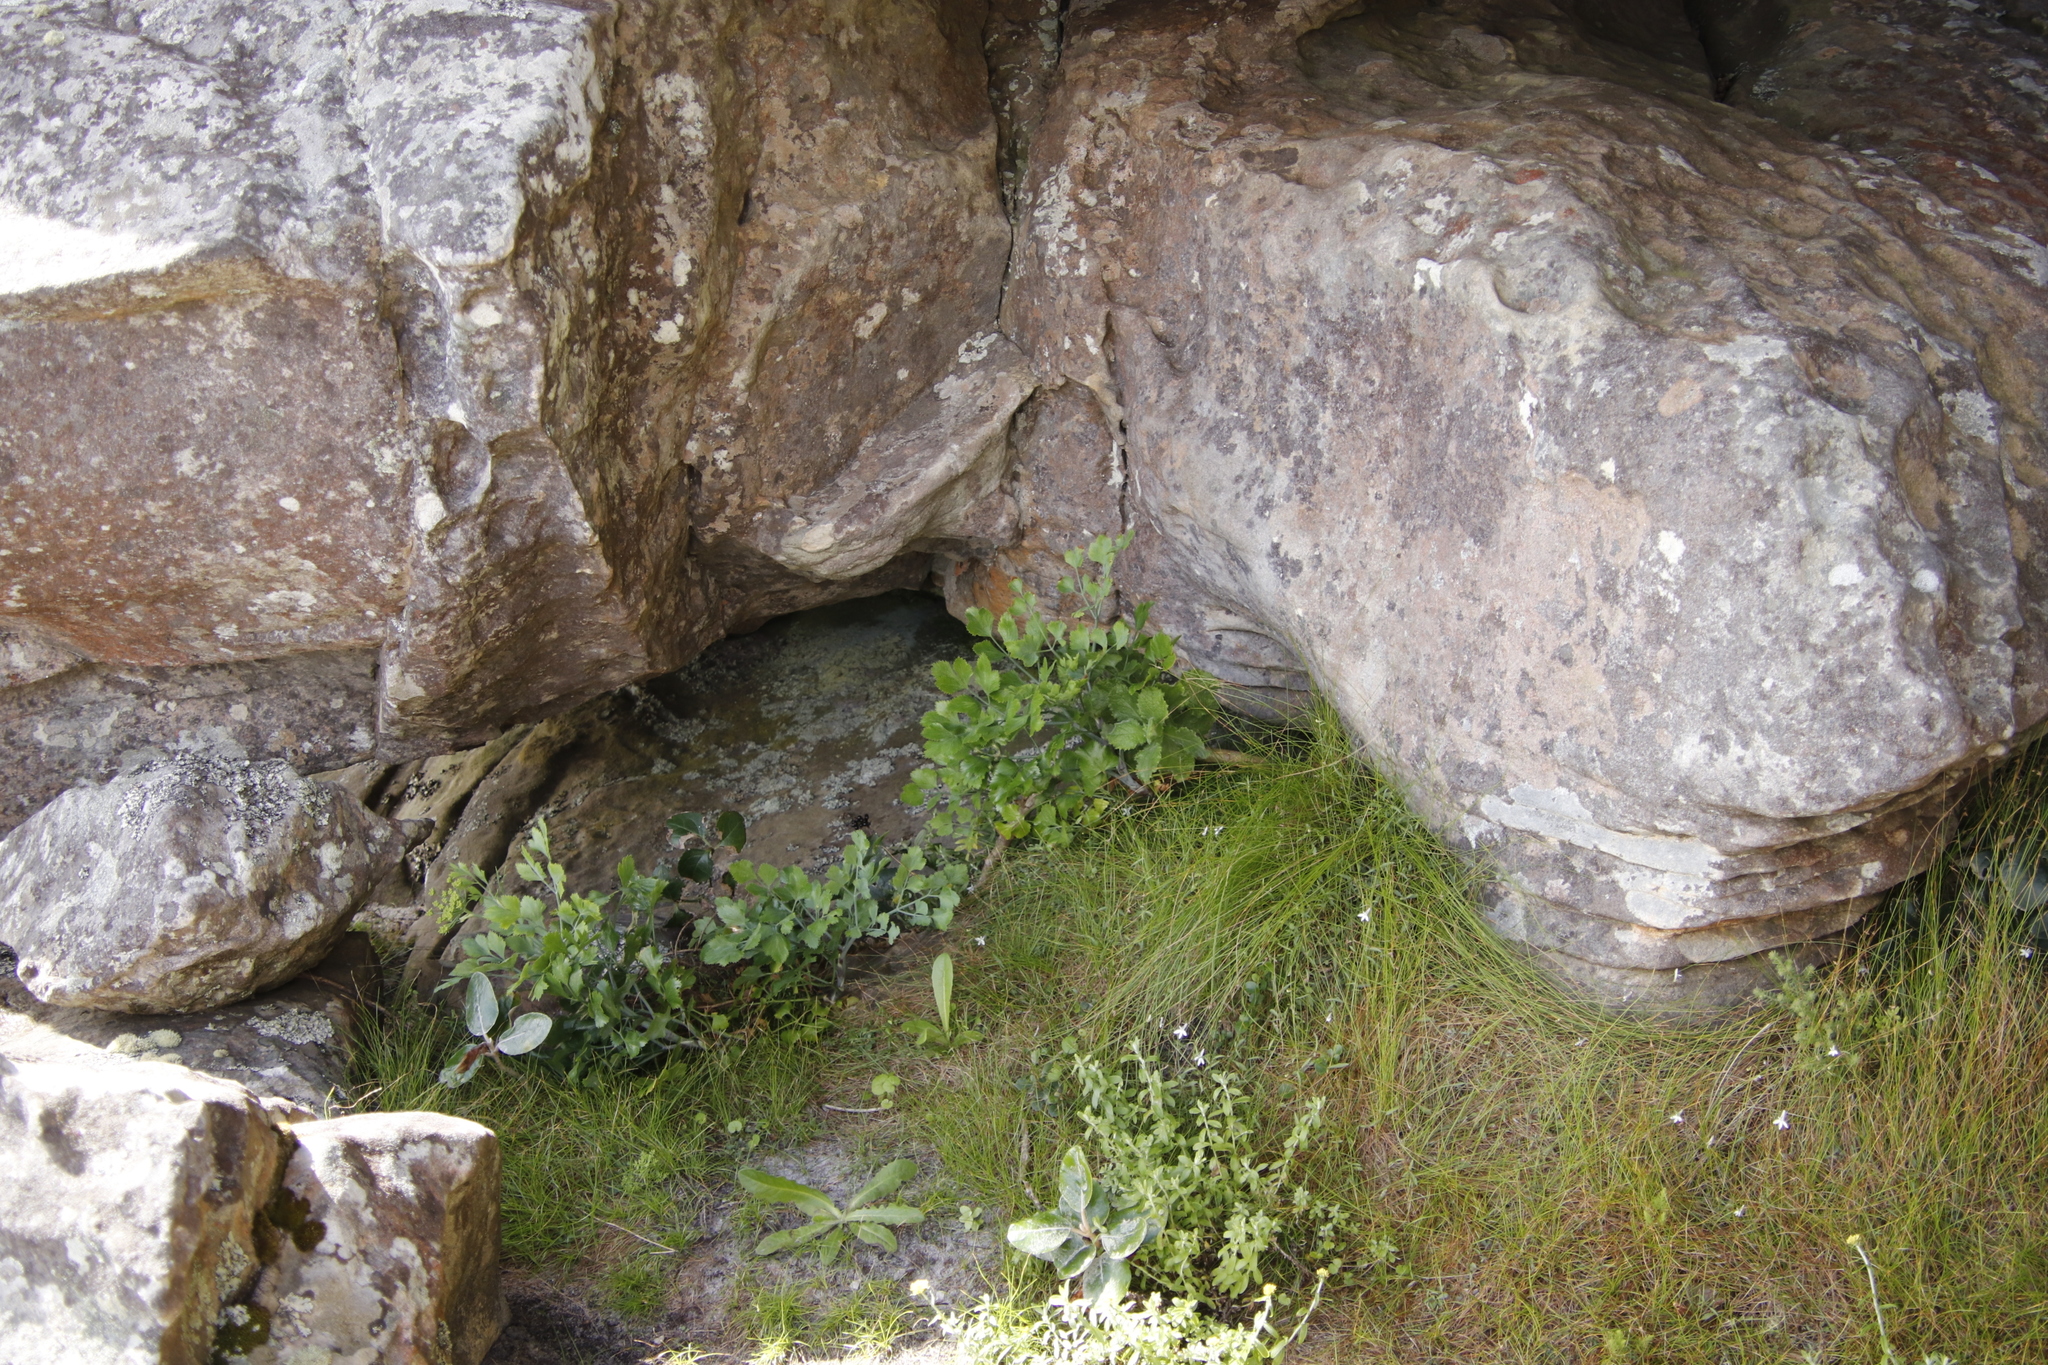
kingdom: Plantae
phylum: Tracheophyta
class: Magnoliopsida
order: Apiales
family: Apiaceae
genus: Notobubon
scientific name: Notobubon galbanum
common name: Blisterbush
